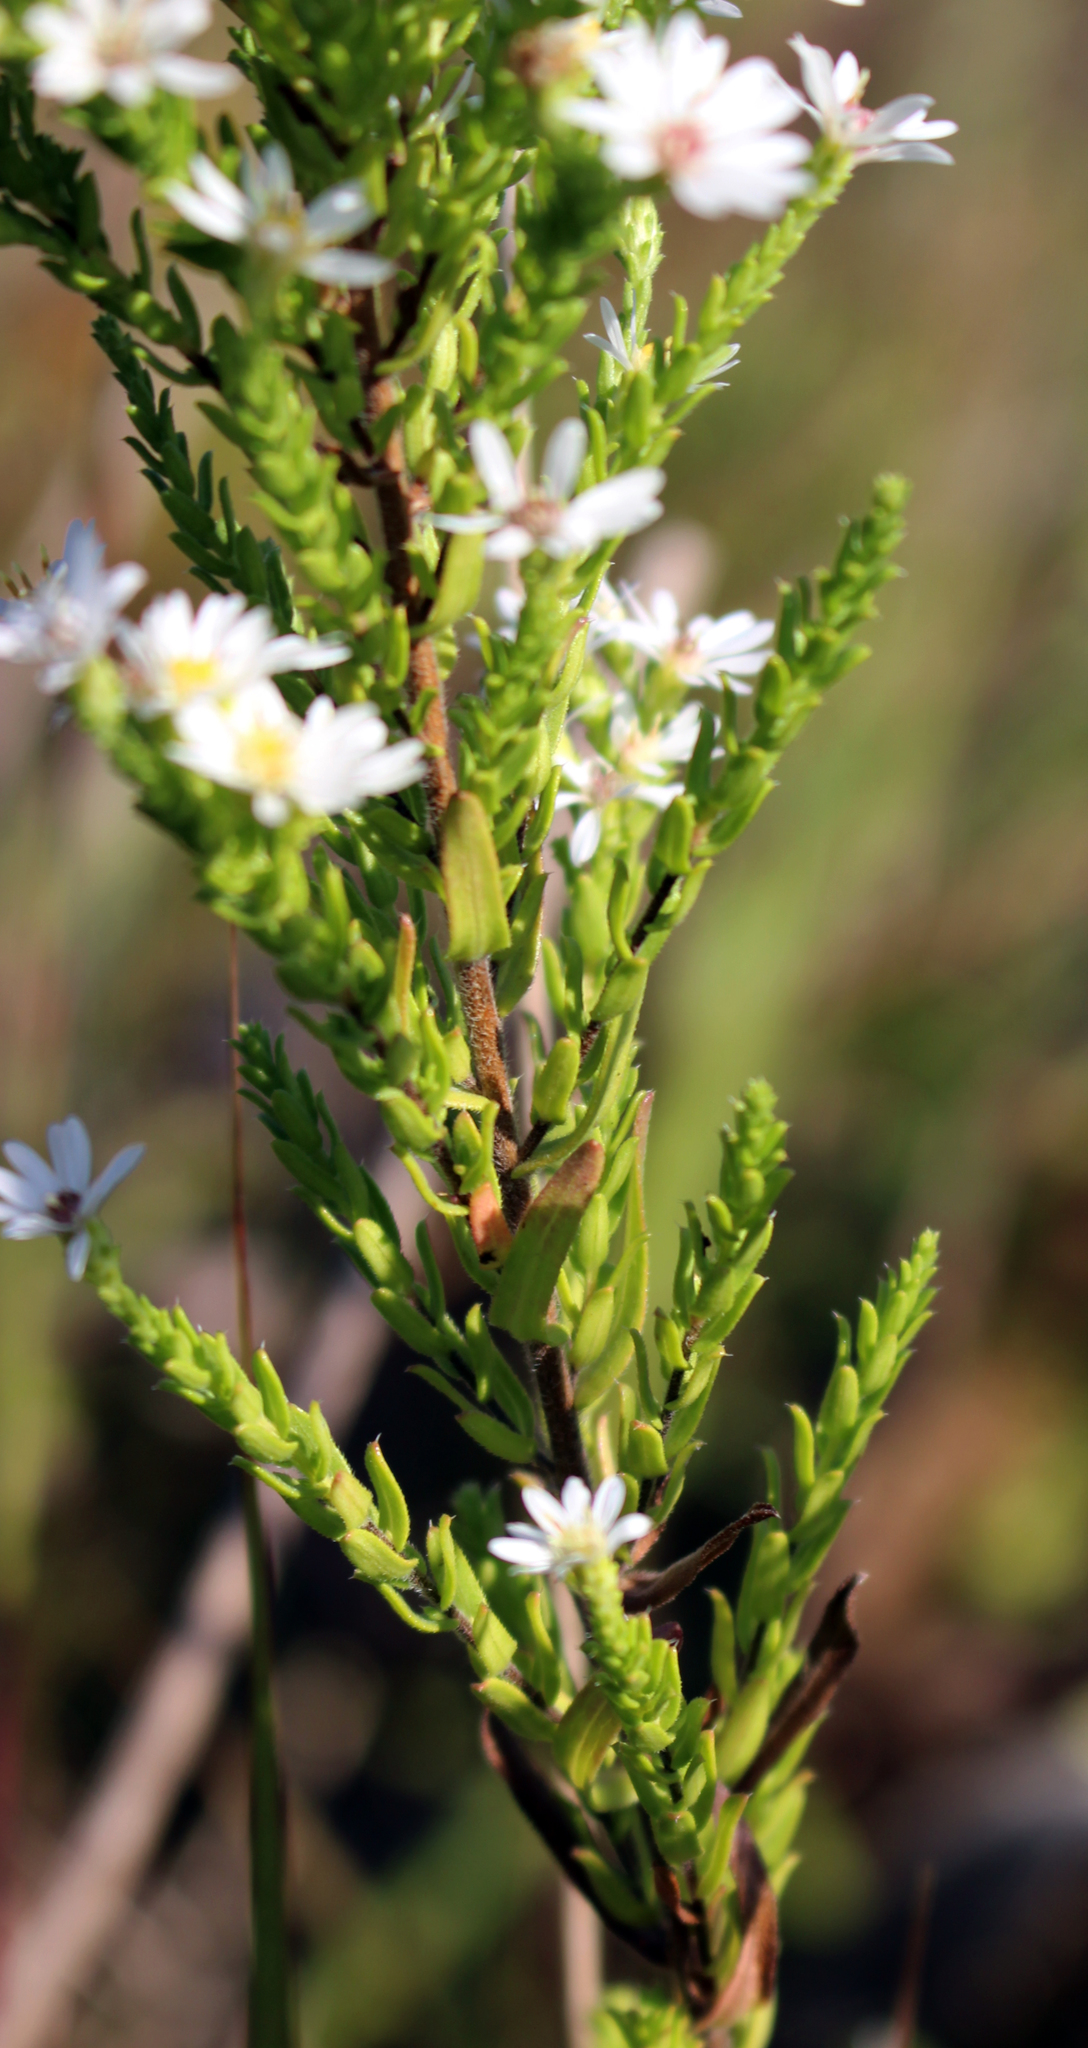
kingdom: Plantae
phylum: Tracheophyta
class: Magnoliopsida
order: Asterales
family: Asteraceae
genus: Symphyotrichum
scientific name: Symphyotrichum ericoides
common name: Heath aster
